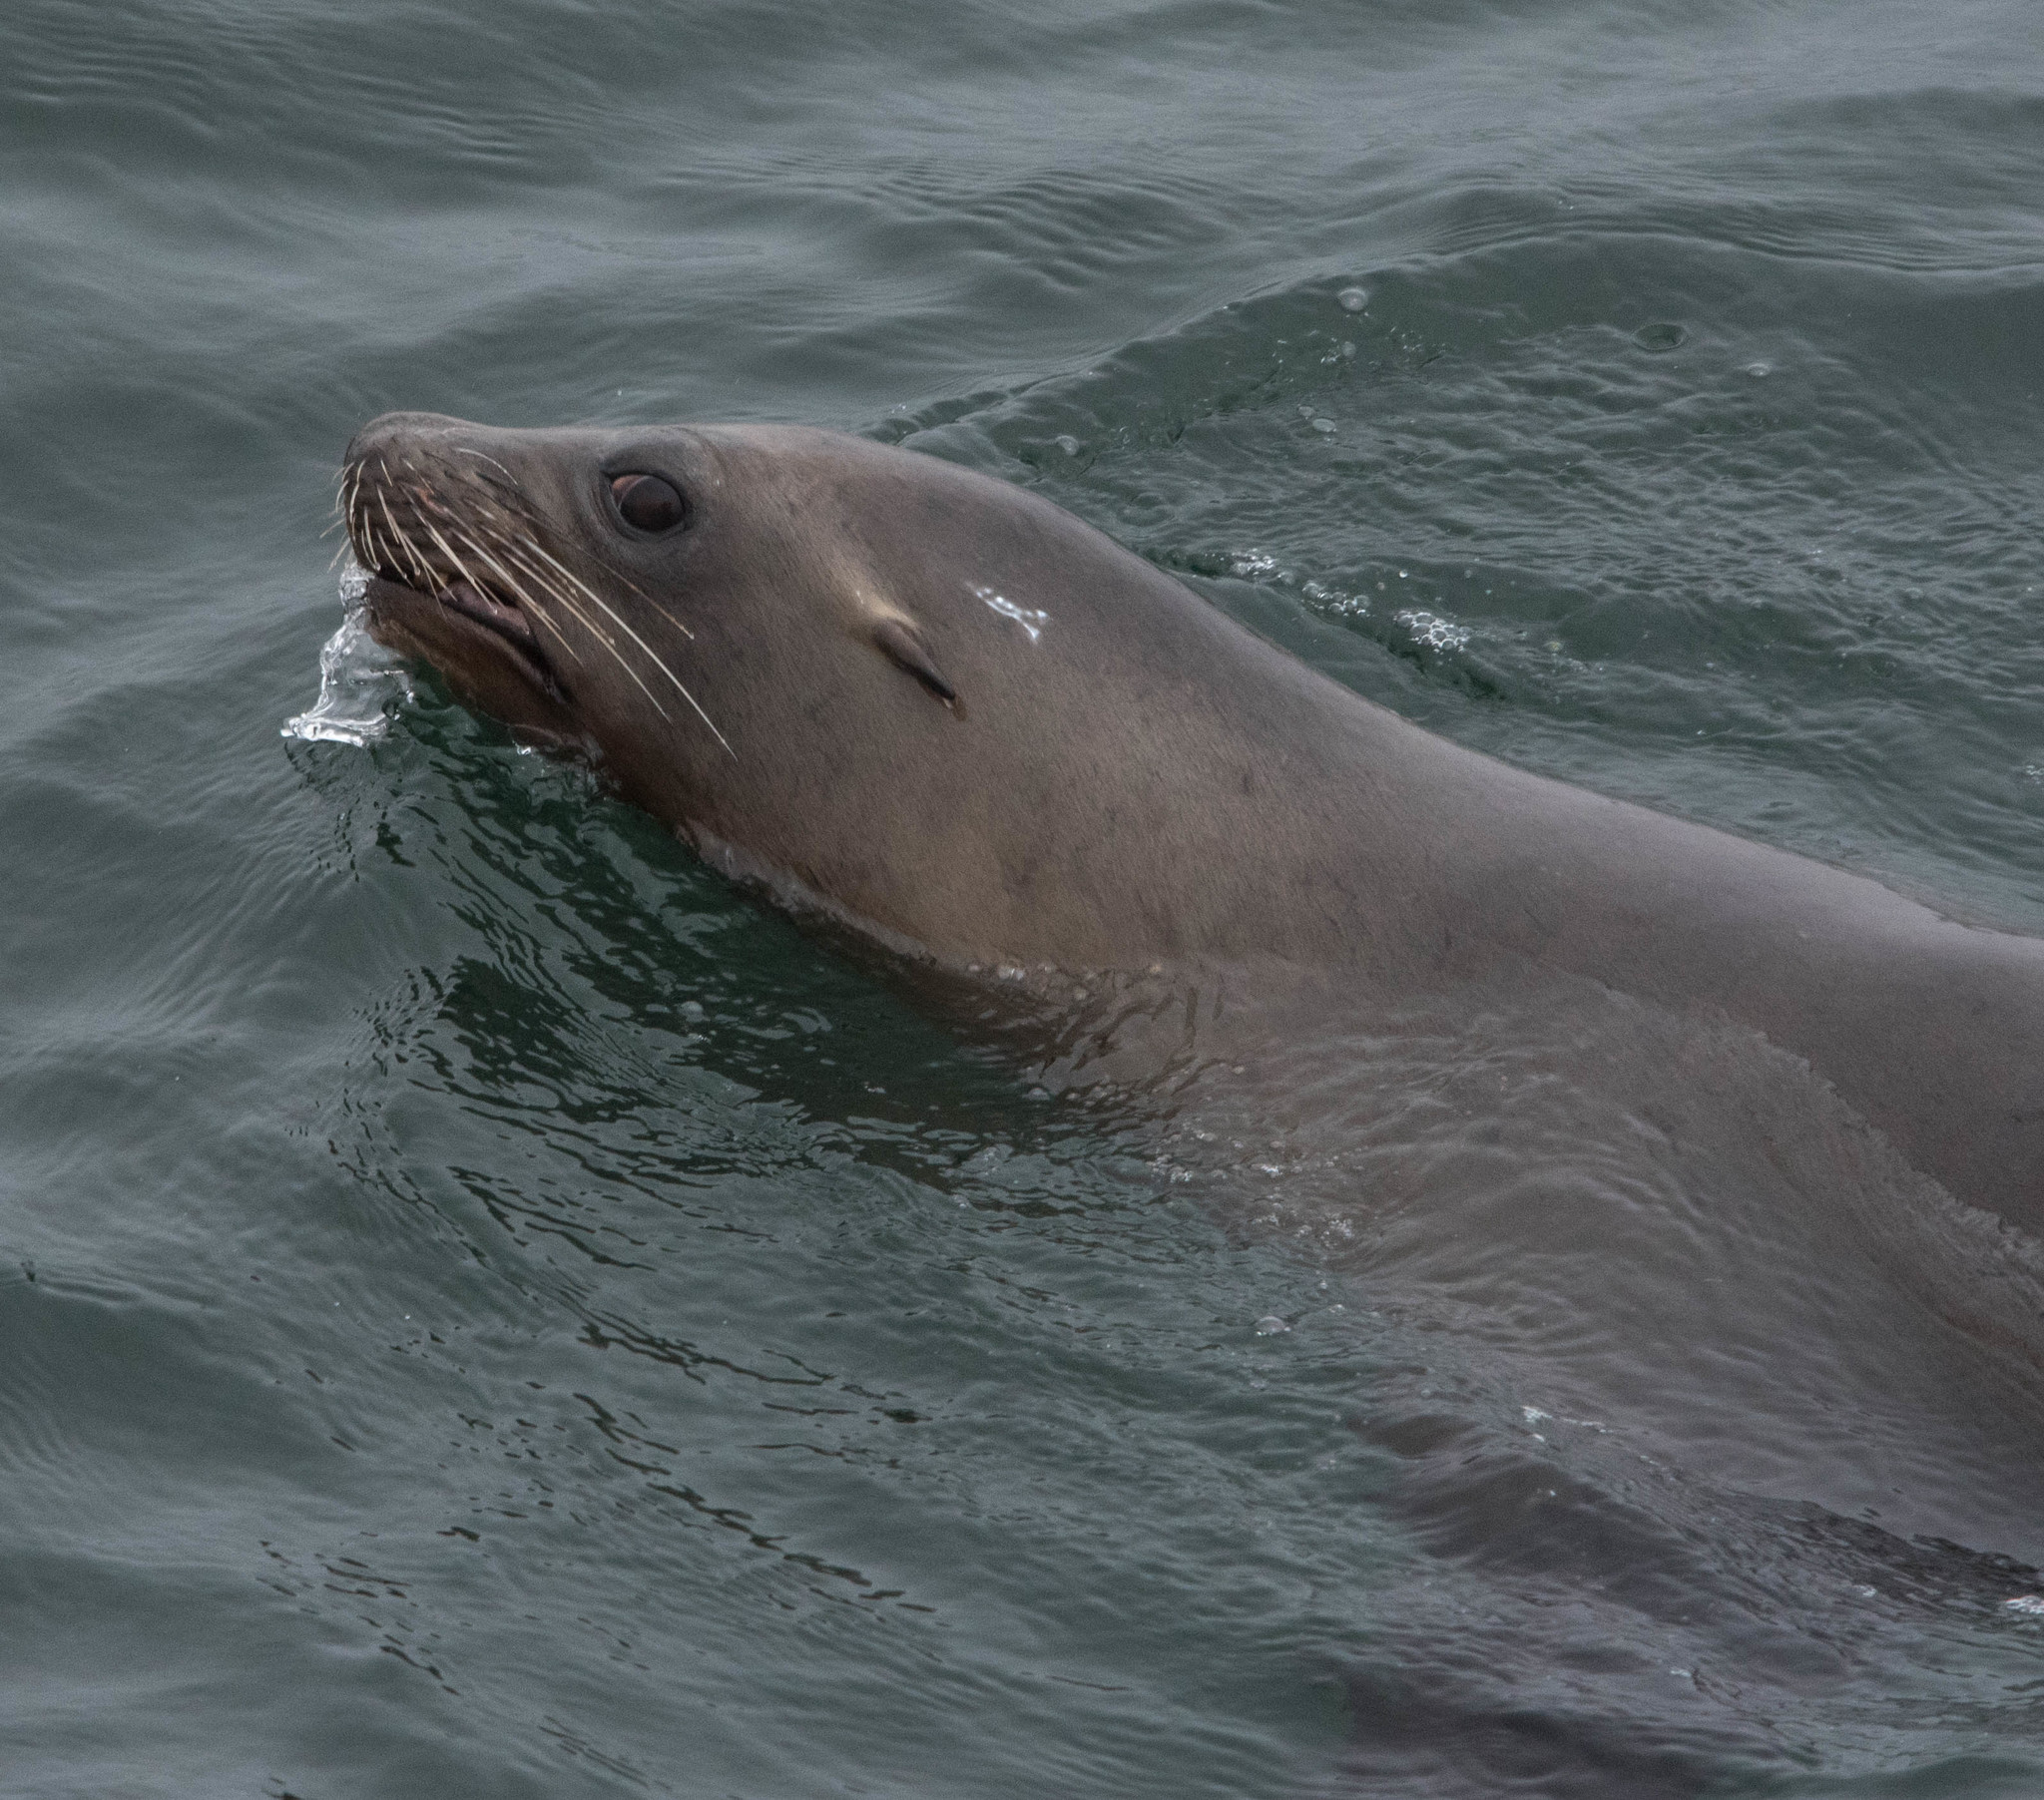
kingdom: Animalia
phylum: Chordata
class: Mammalia
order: Carnivora
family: Otariidae
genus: Zalophus
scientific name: Zalophus californianus
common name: California sea lion
